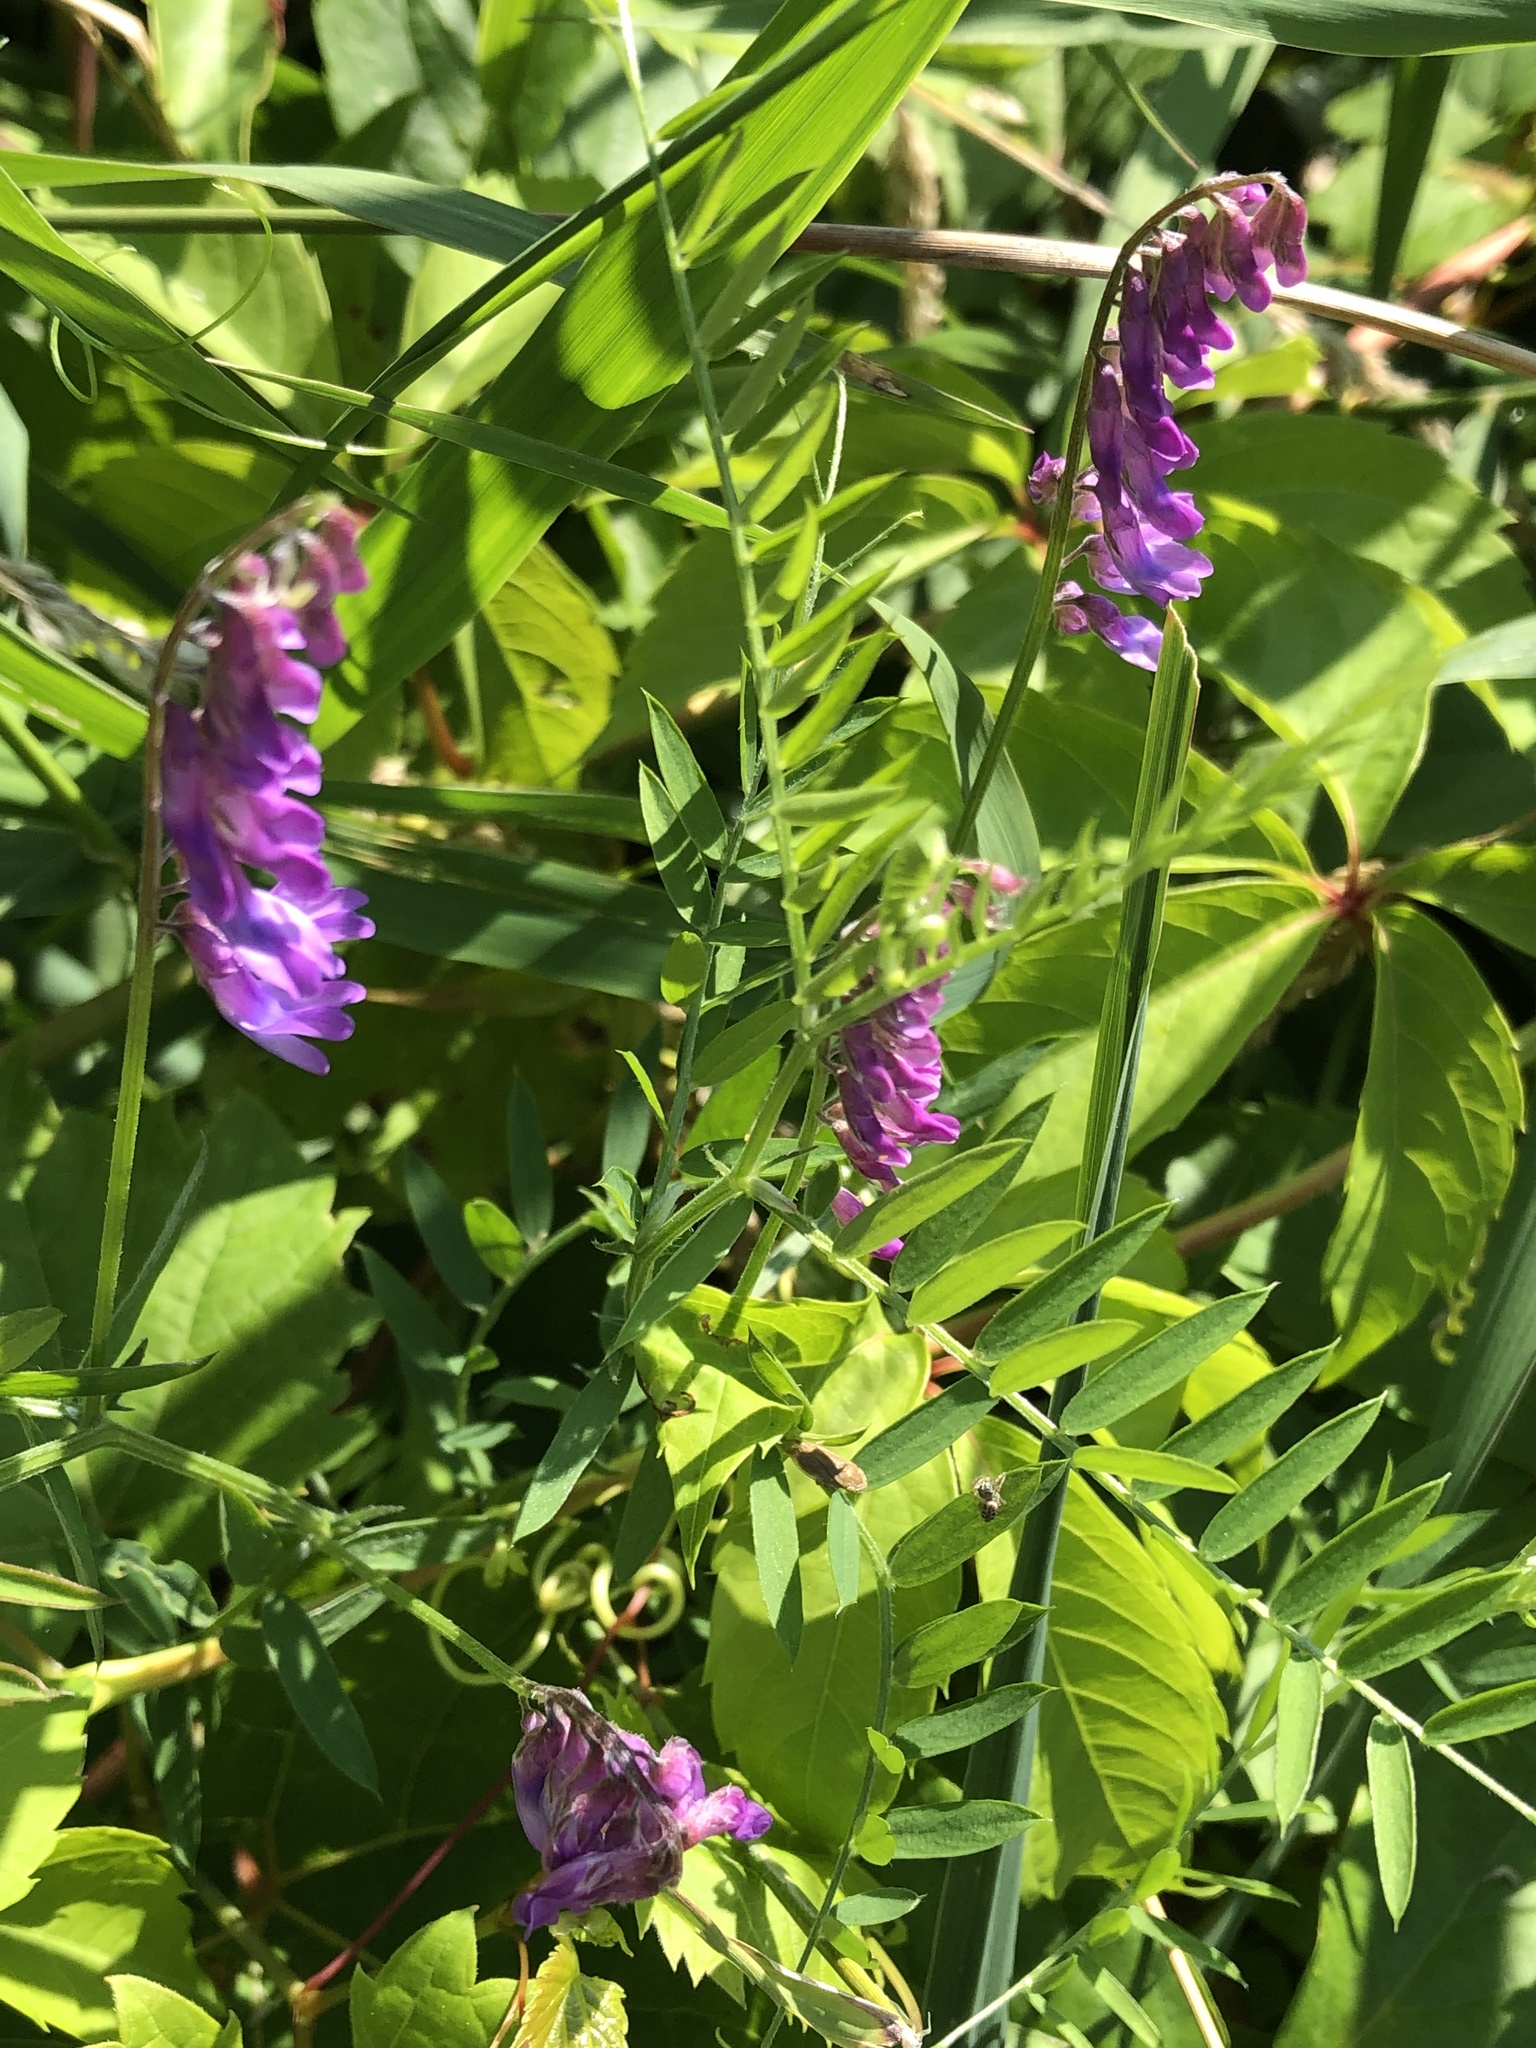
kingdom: Plantae
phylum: Tracheophyta
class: Magnoliopsida
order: Fabales
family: Fabaceae
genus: Vicia
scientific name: Vicia cracca
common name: Bird vetch
